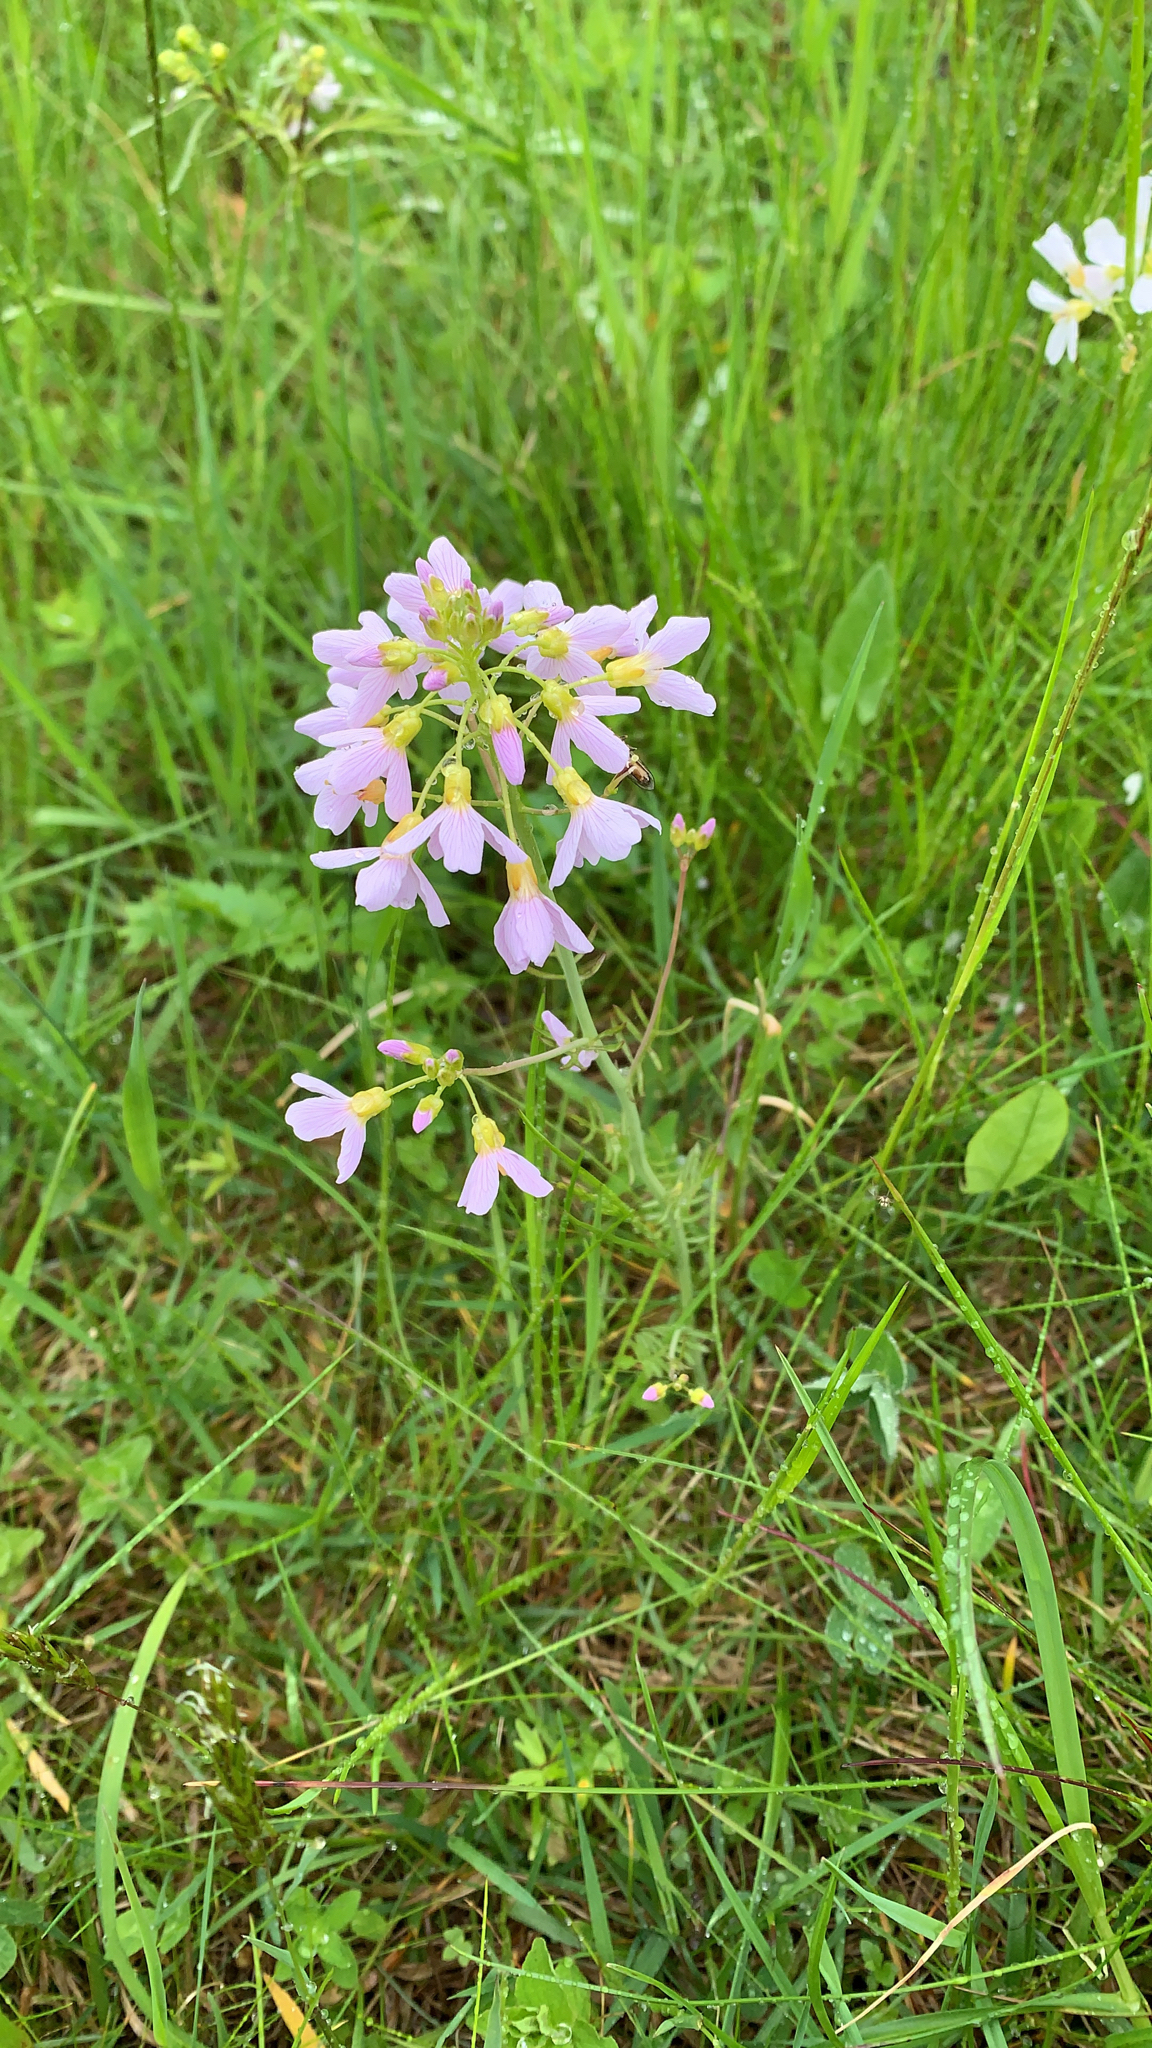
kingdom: Plantae
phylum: Tracheophyta
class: Magnoliopsida
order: Brassicales
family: Brassicaceae
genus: Cardamine
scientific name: Cardamine pratensis
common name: Cuckoo flower
